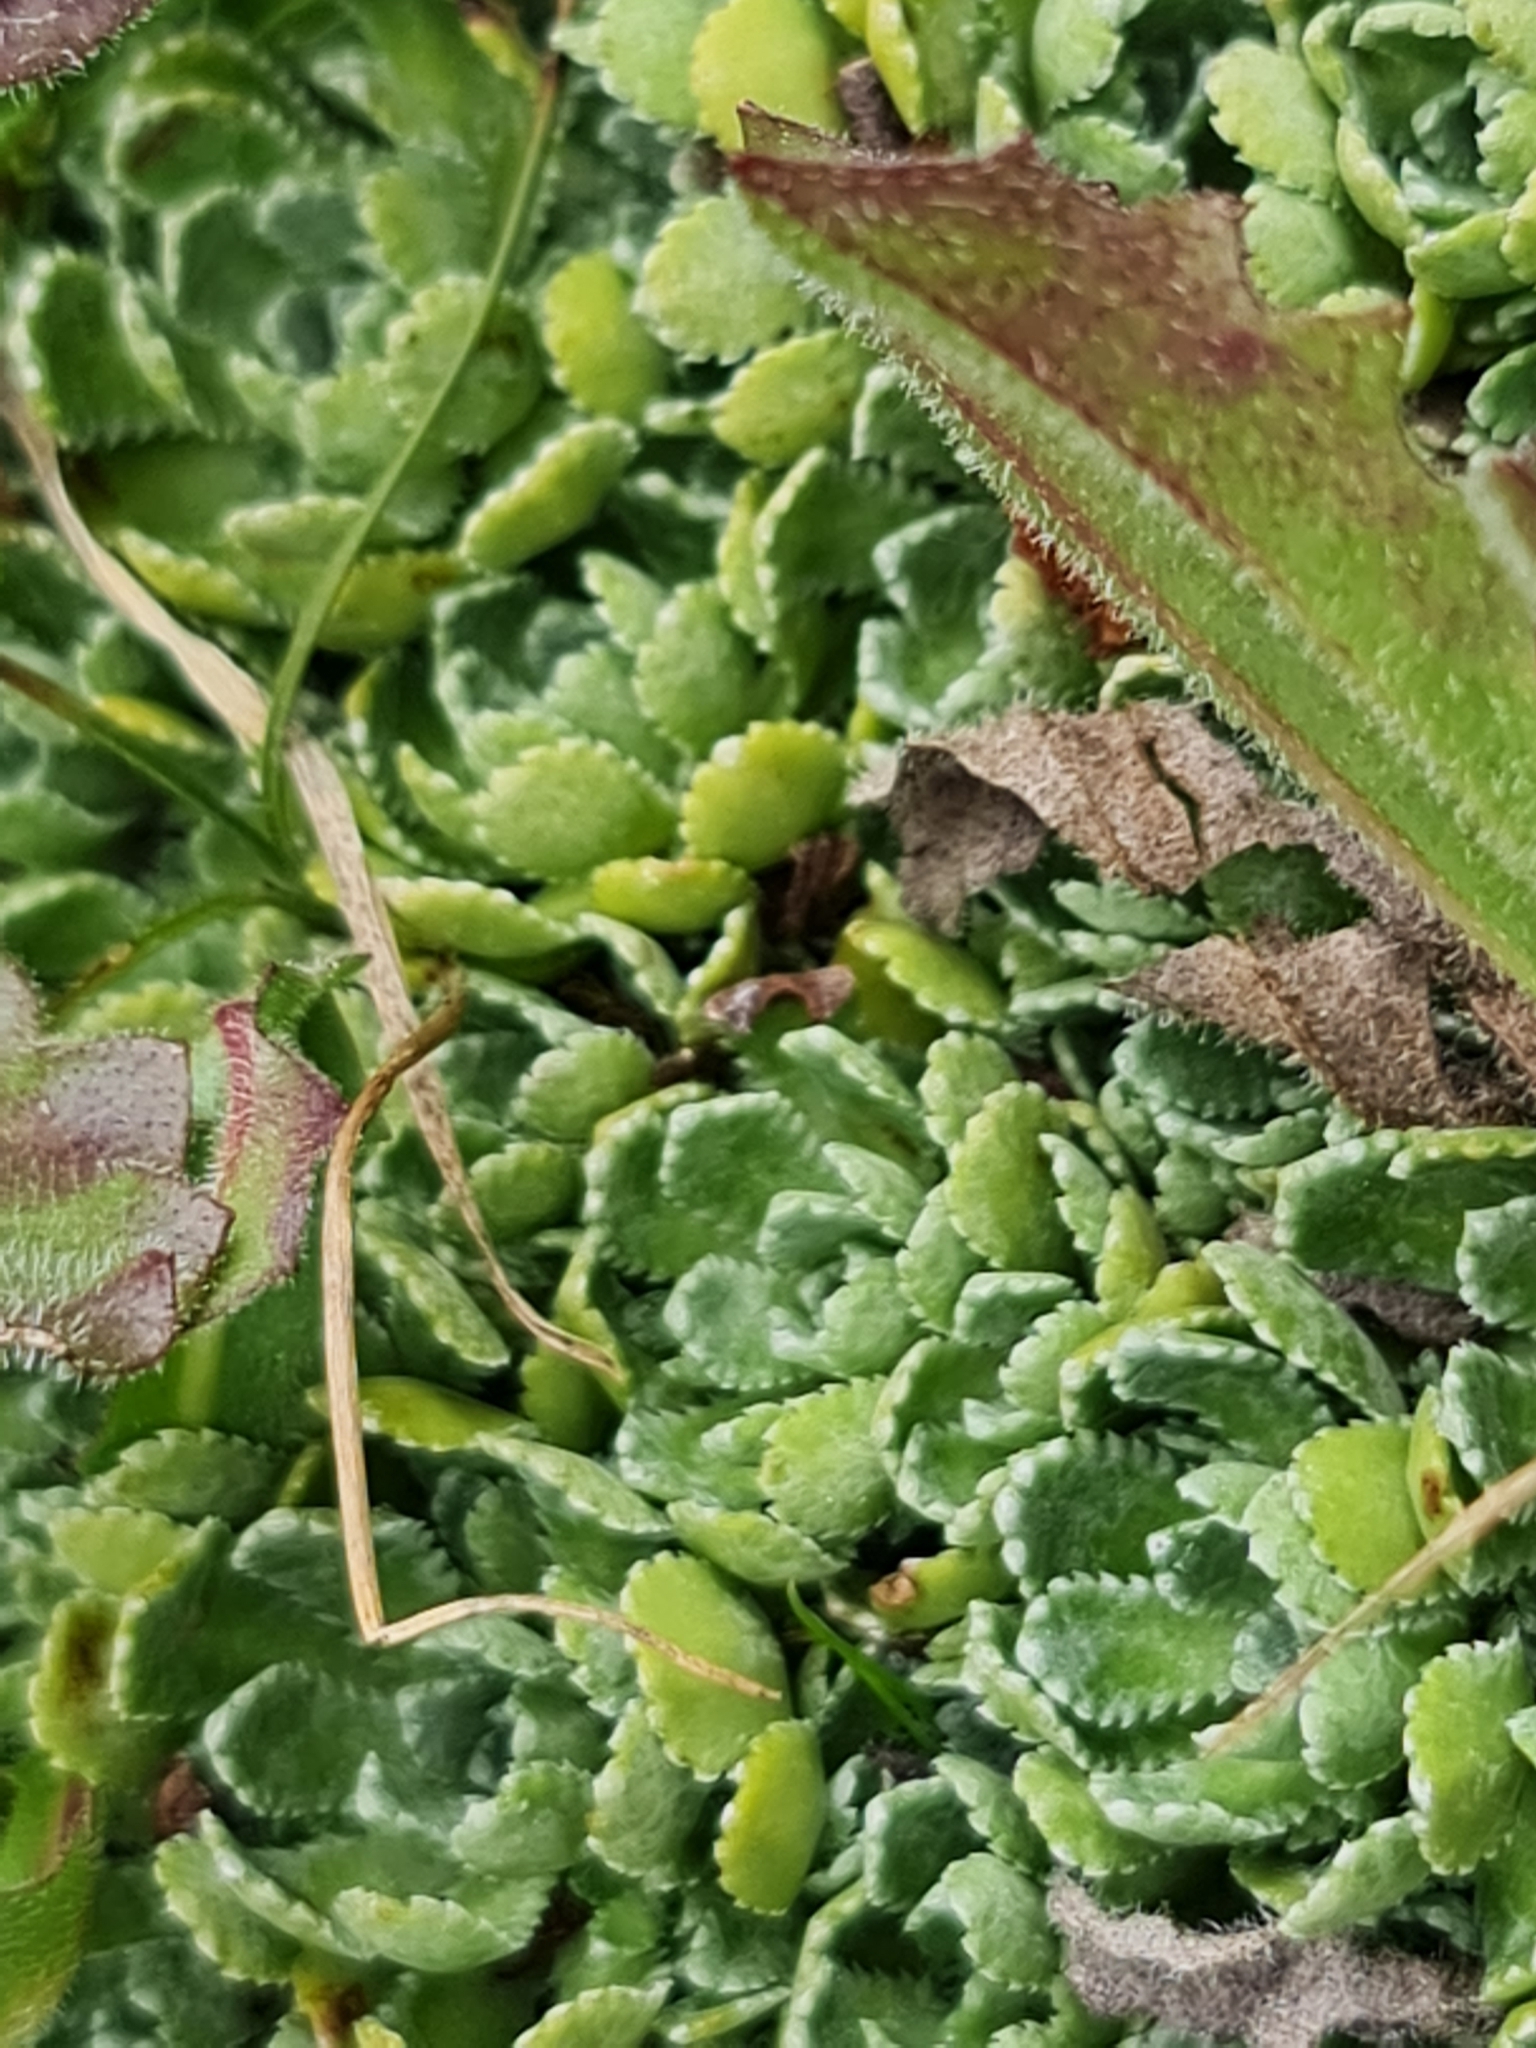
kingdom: Plantae
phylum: Tracheophyta
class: Magnoliopsida
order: Saxifragales
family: Saxifragaceae
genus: Saxifraga
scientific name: Saxifraga paniculata
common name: Livelong saxifrage
